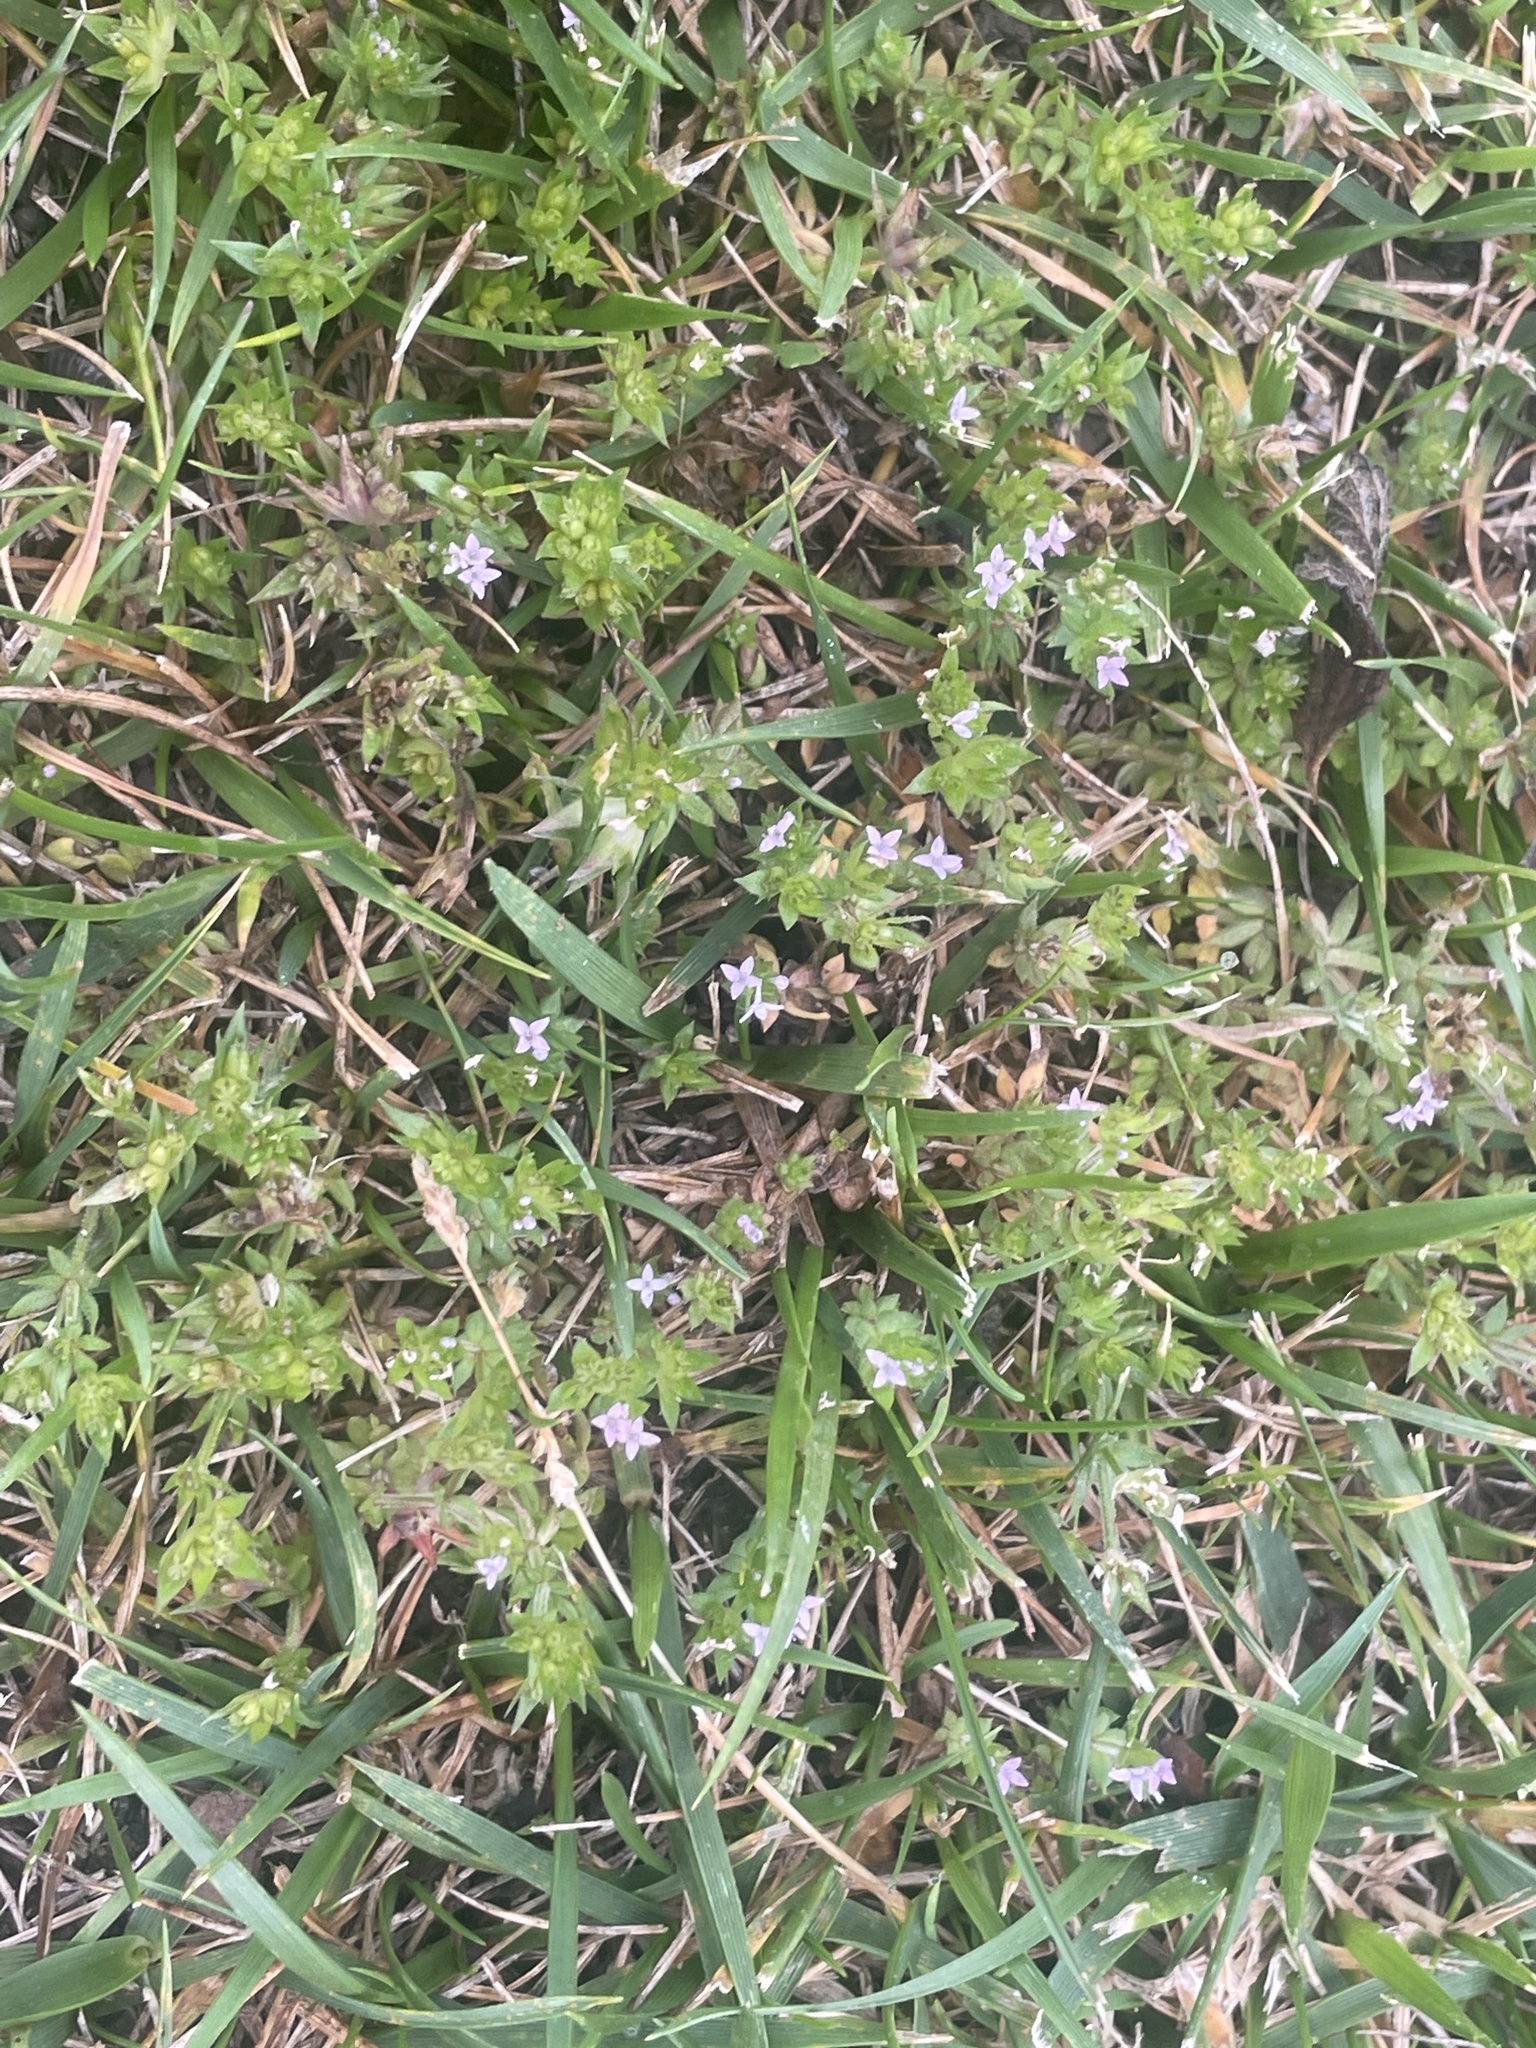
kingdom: Plantae
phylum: Tracheophyta
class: Magnoliopsida
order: Gentianales
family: Rubiaceae
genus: Sherardia
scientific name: Sherardia arvensis
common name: Field madder
